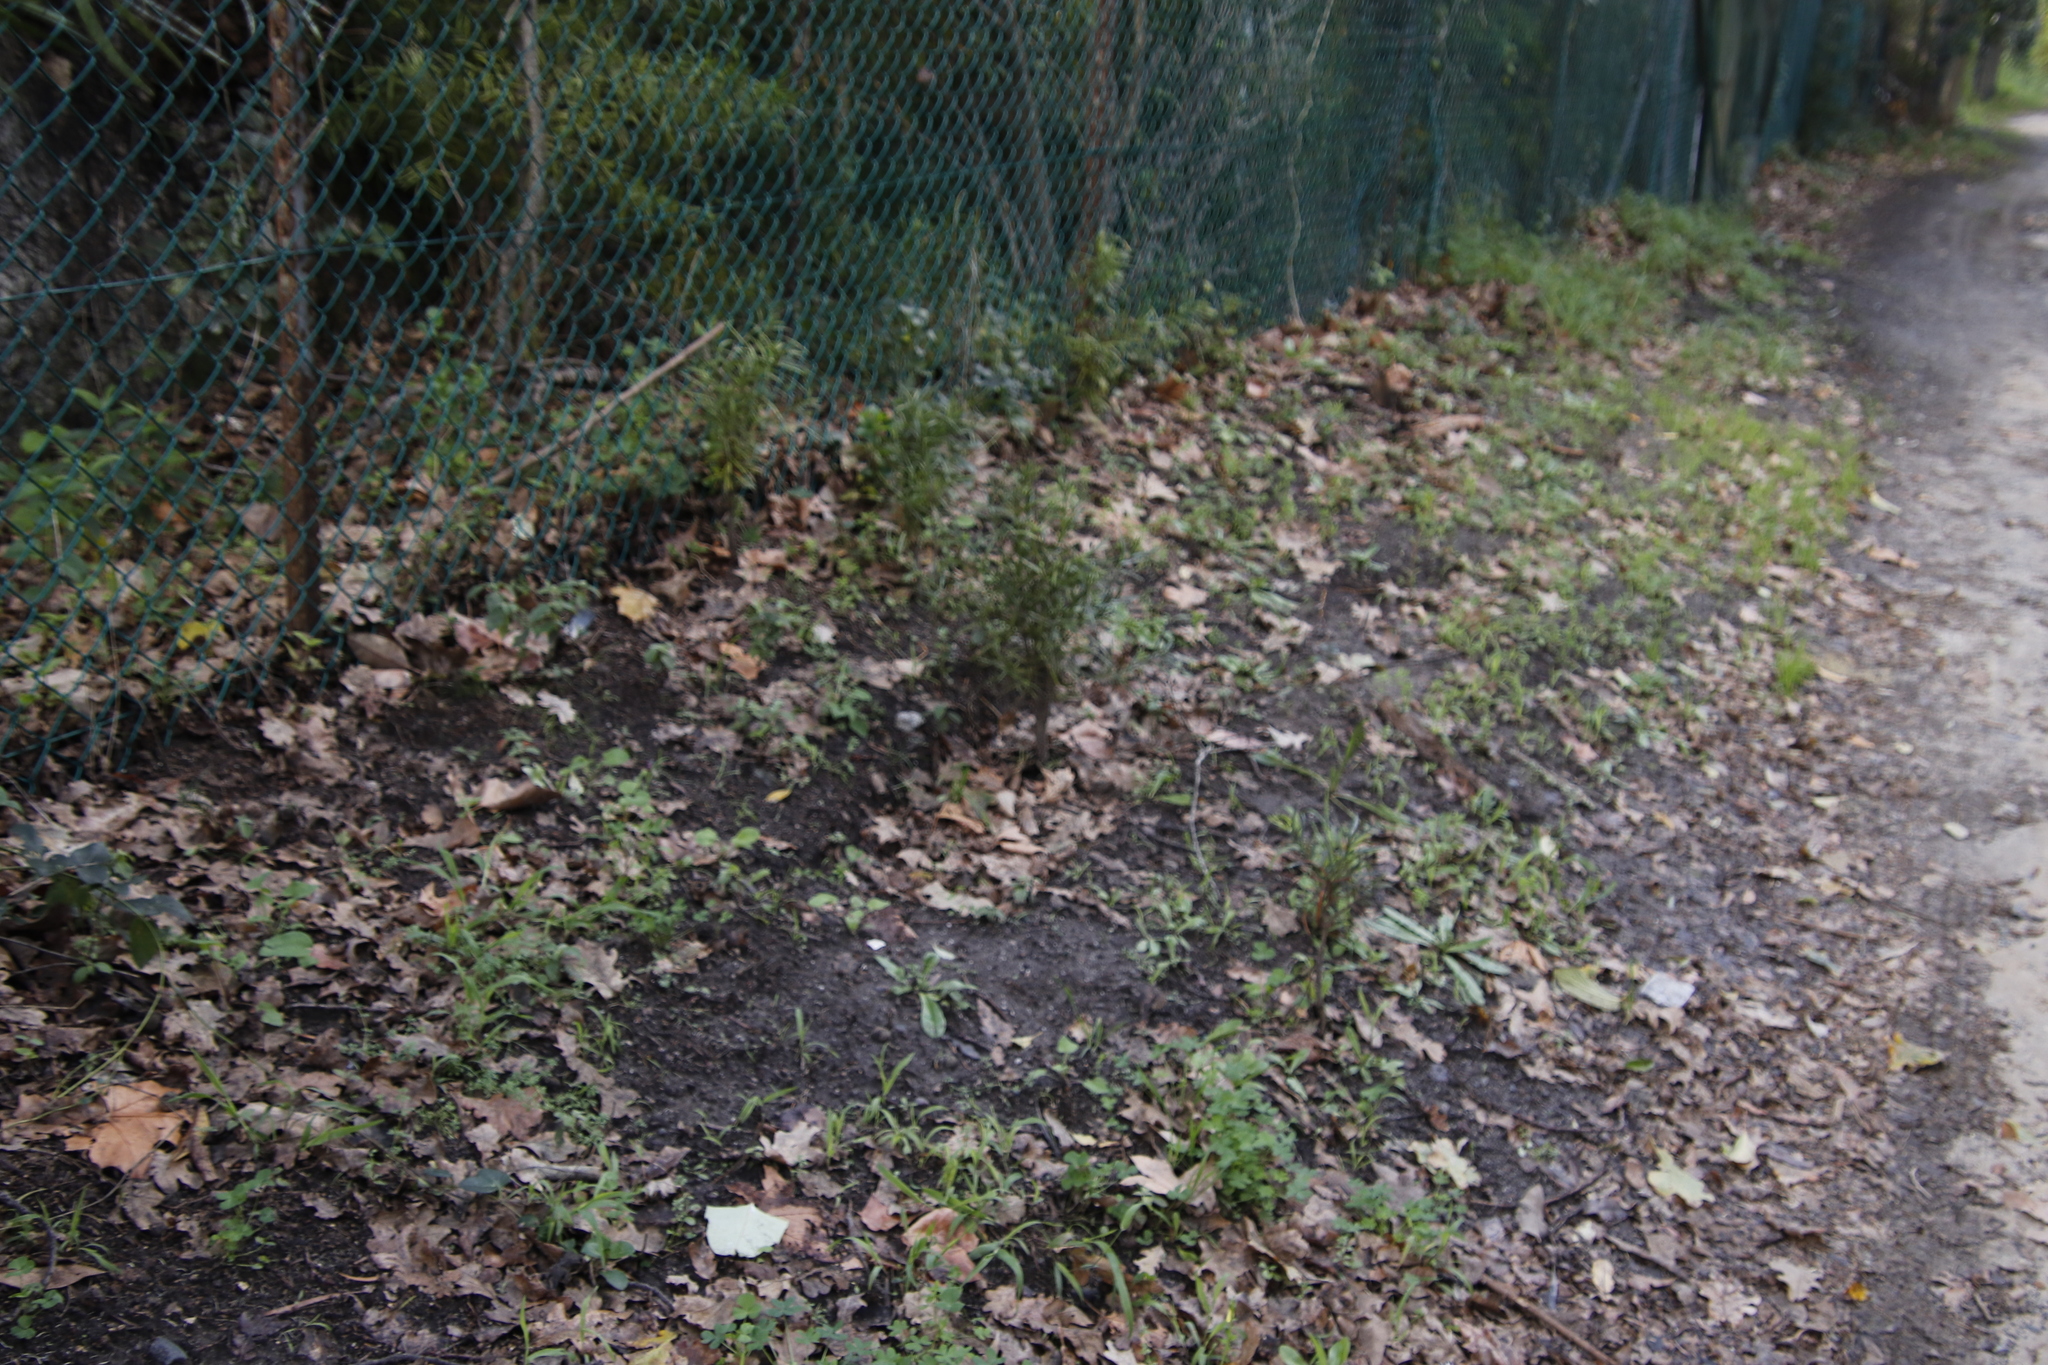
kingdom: Plantae
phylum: Tracheophyta
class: Pinopsida
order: Pinales
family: Podocarpaceae
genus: Afrocarpus
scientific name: Afrocarpus falcatus
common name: Bastard yellowwood
